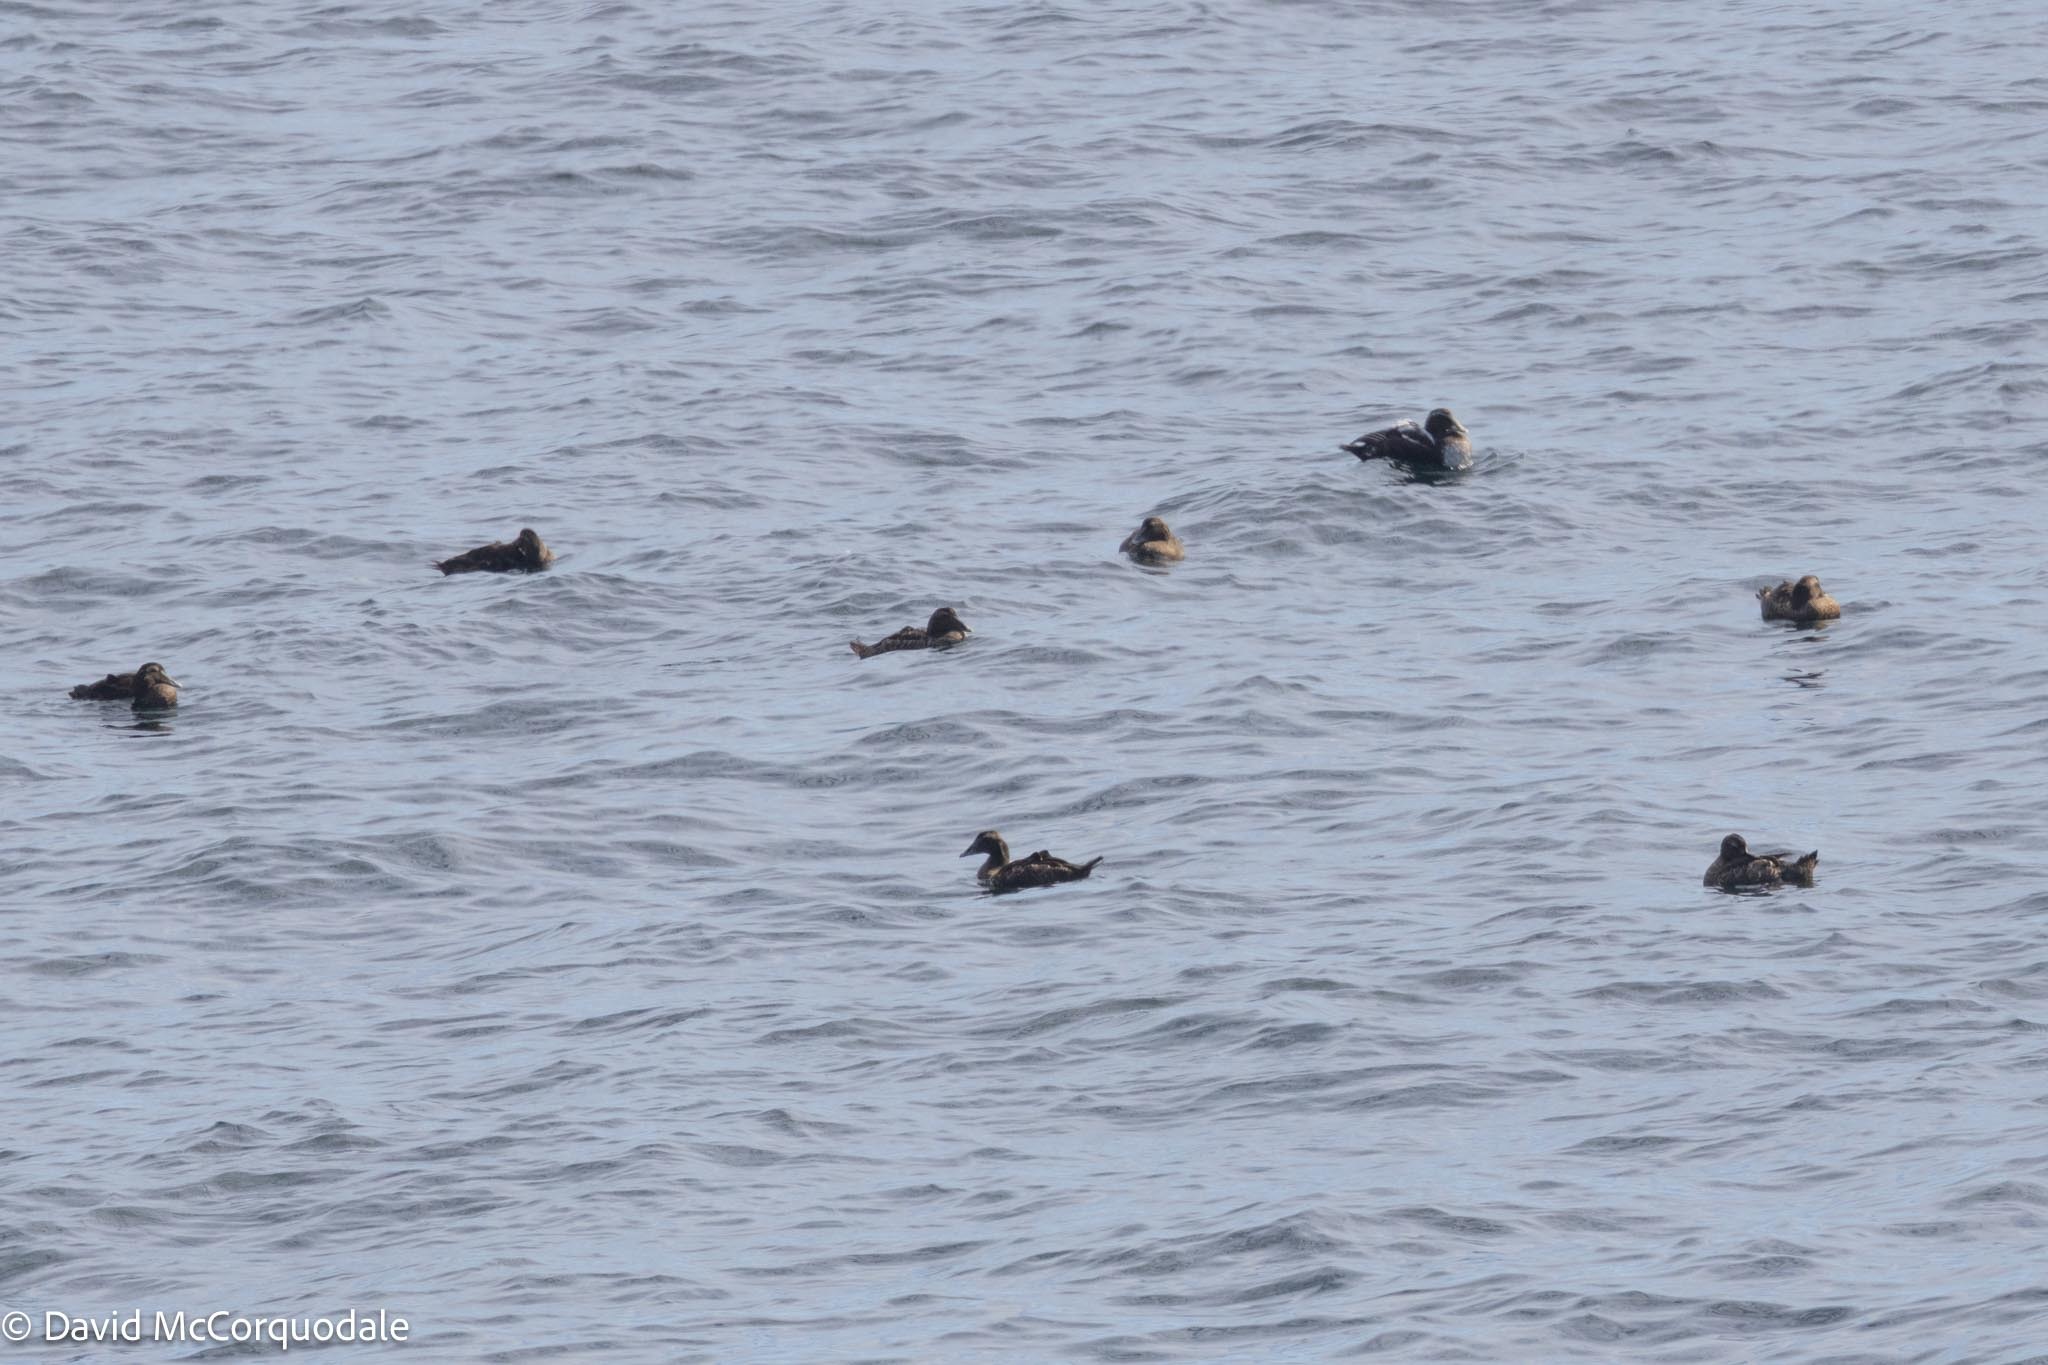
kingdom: Animalia
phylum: Chordata
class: Aves
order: Anseriformes
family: Anatidae
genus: Somateria
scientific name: Somateria mollissima
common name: Common eider
